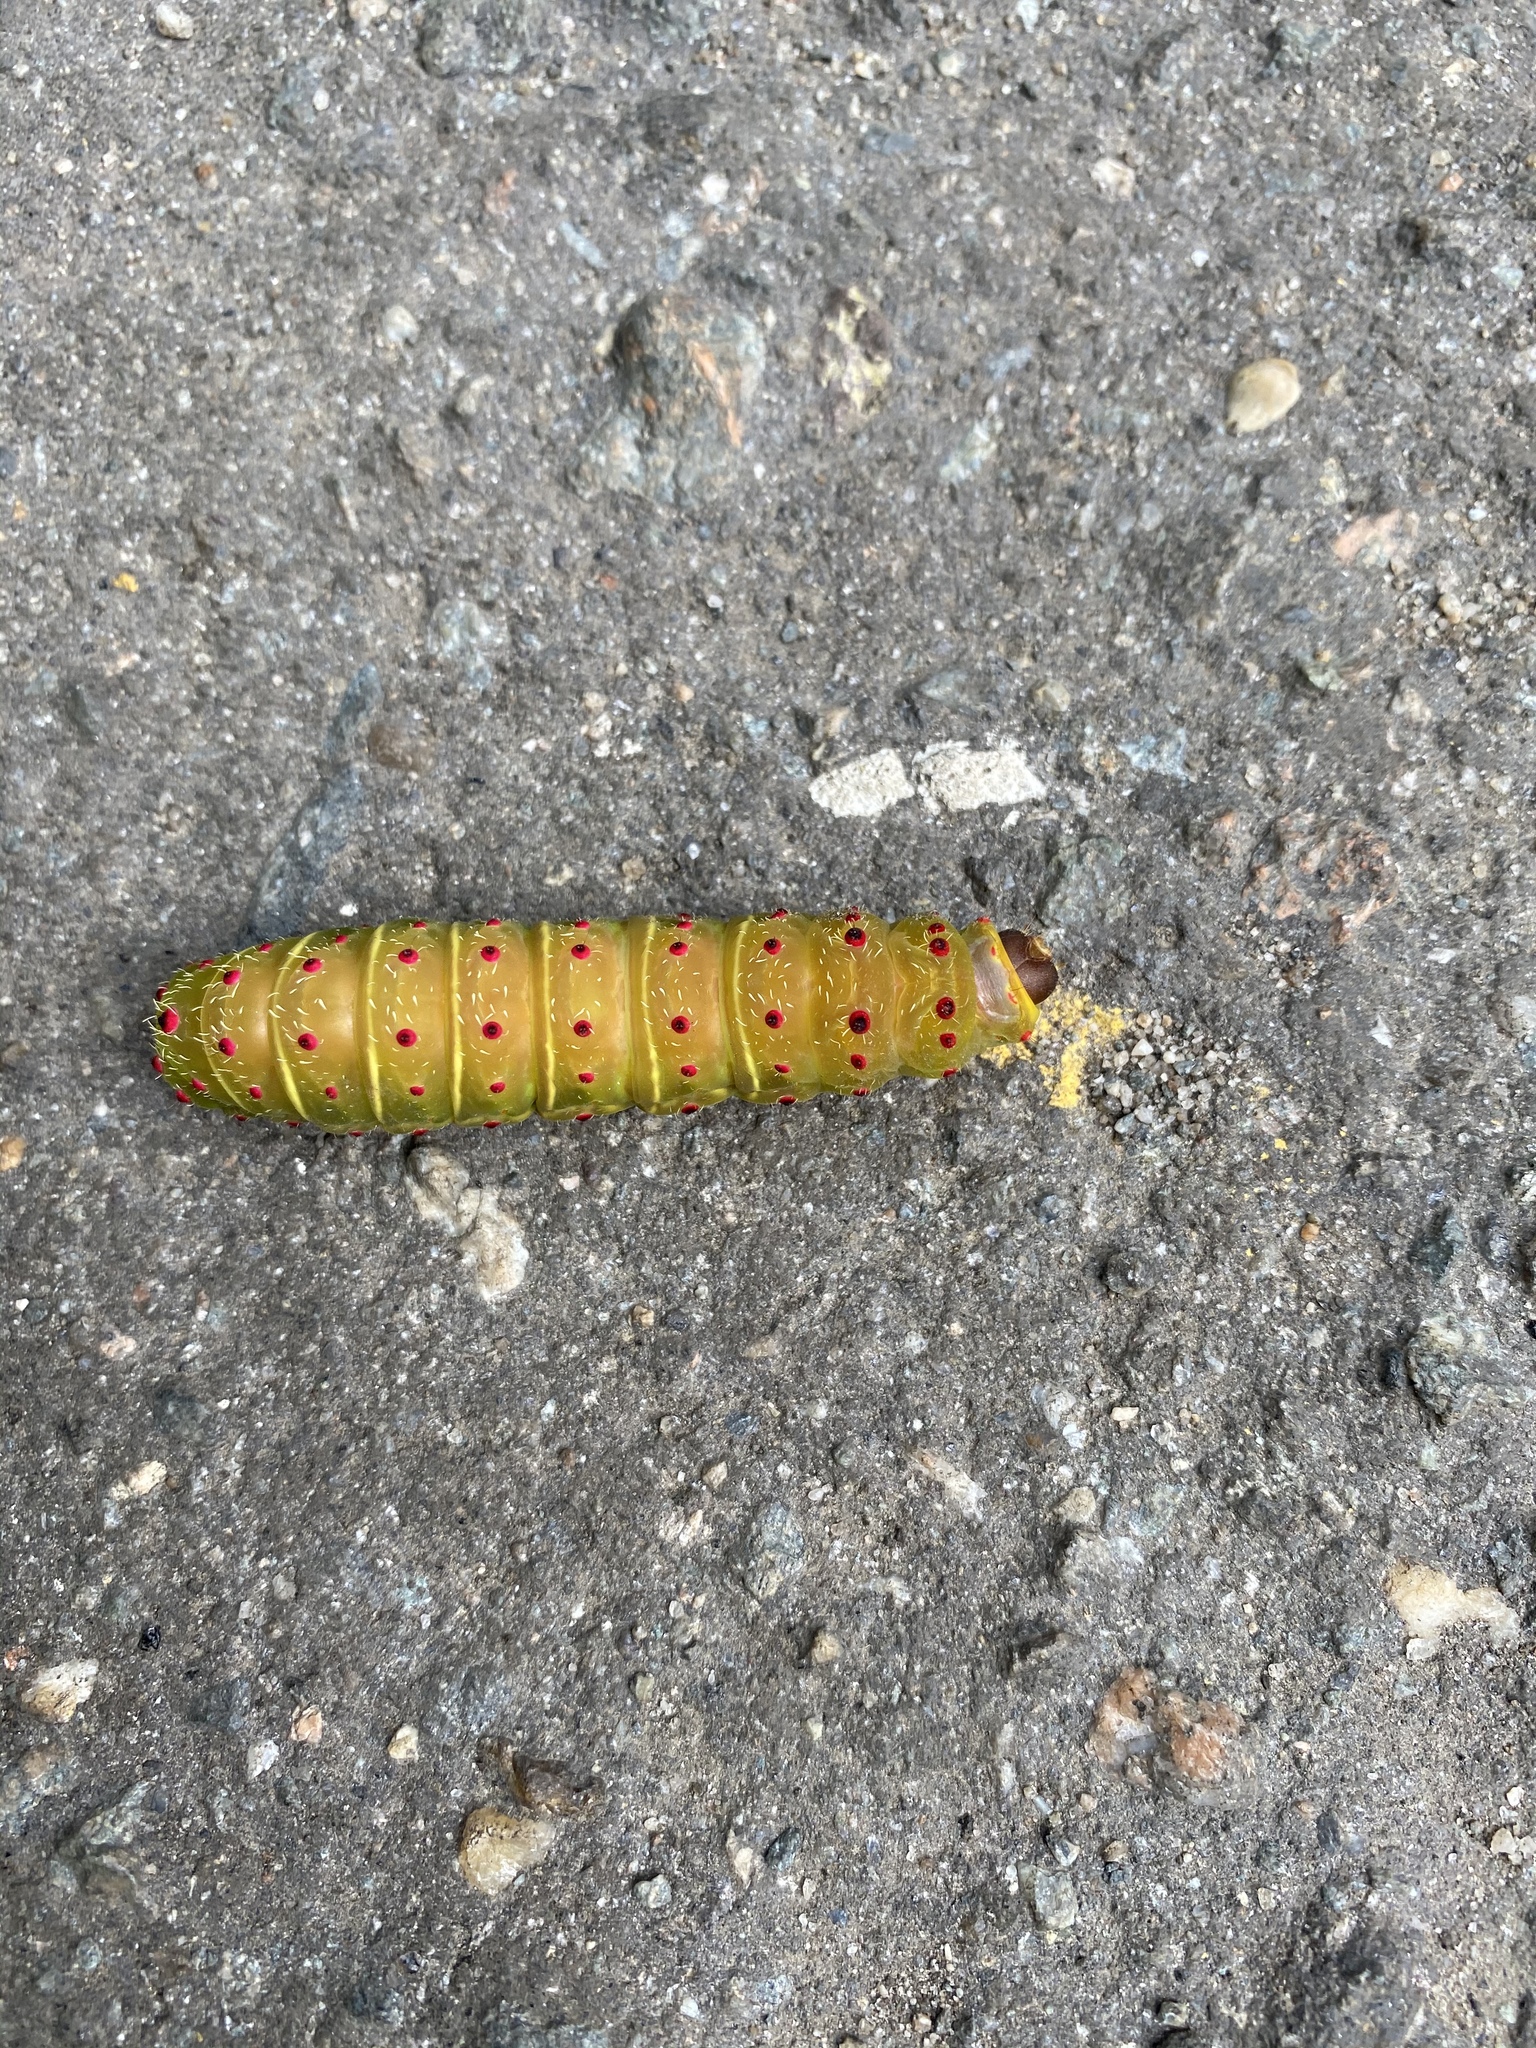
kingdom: Animalia
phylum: Arthropoda
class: Insecta
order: Lepidoptera
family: Saturniidae
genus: Actias
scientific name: Actias luna
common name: Luna moth
